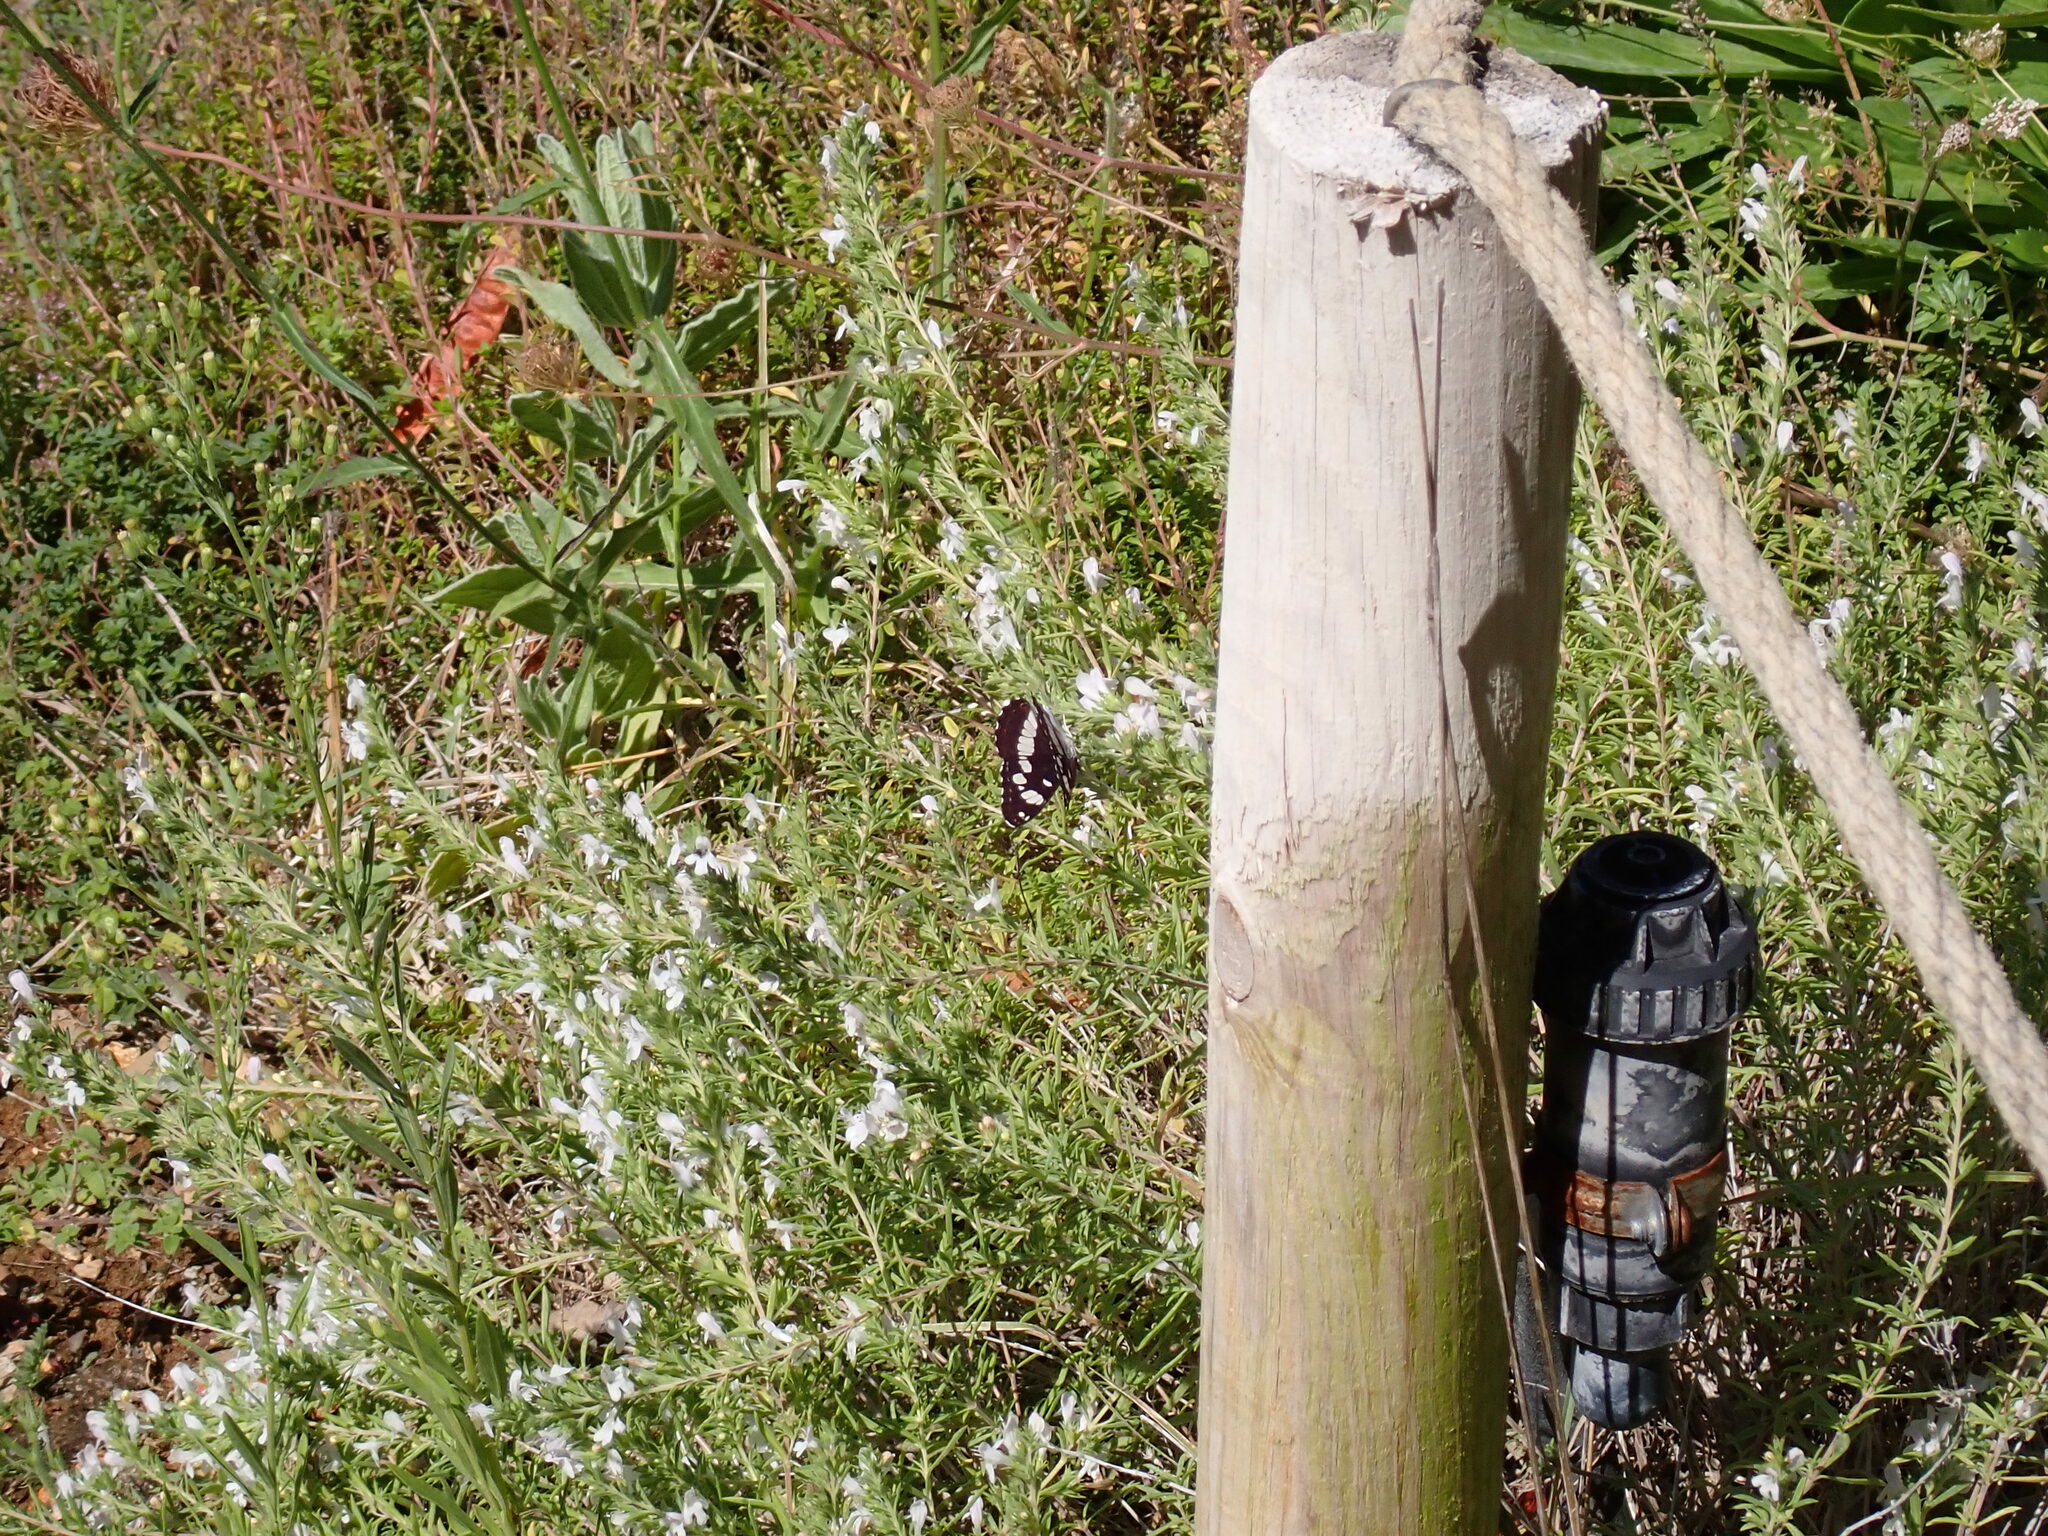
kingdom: Animalia
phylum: Arthropoda
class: Insecta
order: Lepidoptera
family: Nymphalidae
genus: Limenitis
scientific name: Limenitis reducta
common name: Southern white admiral
